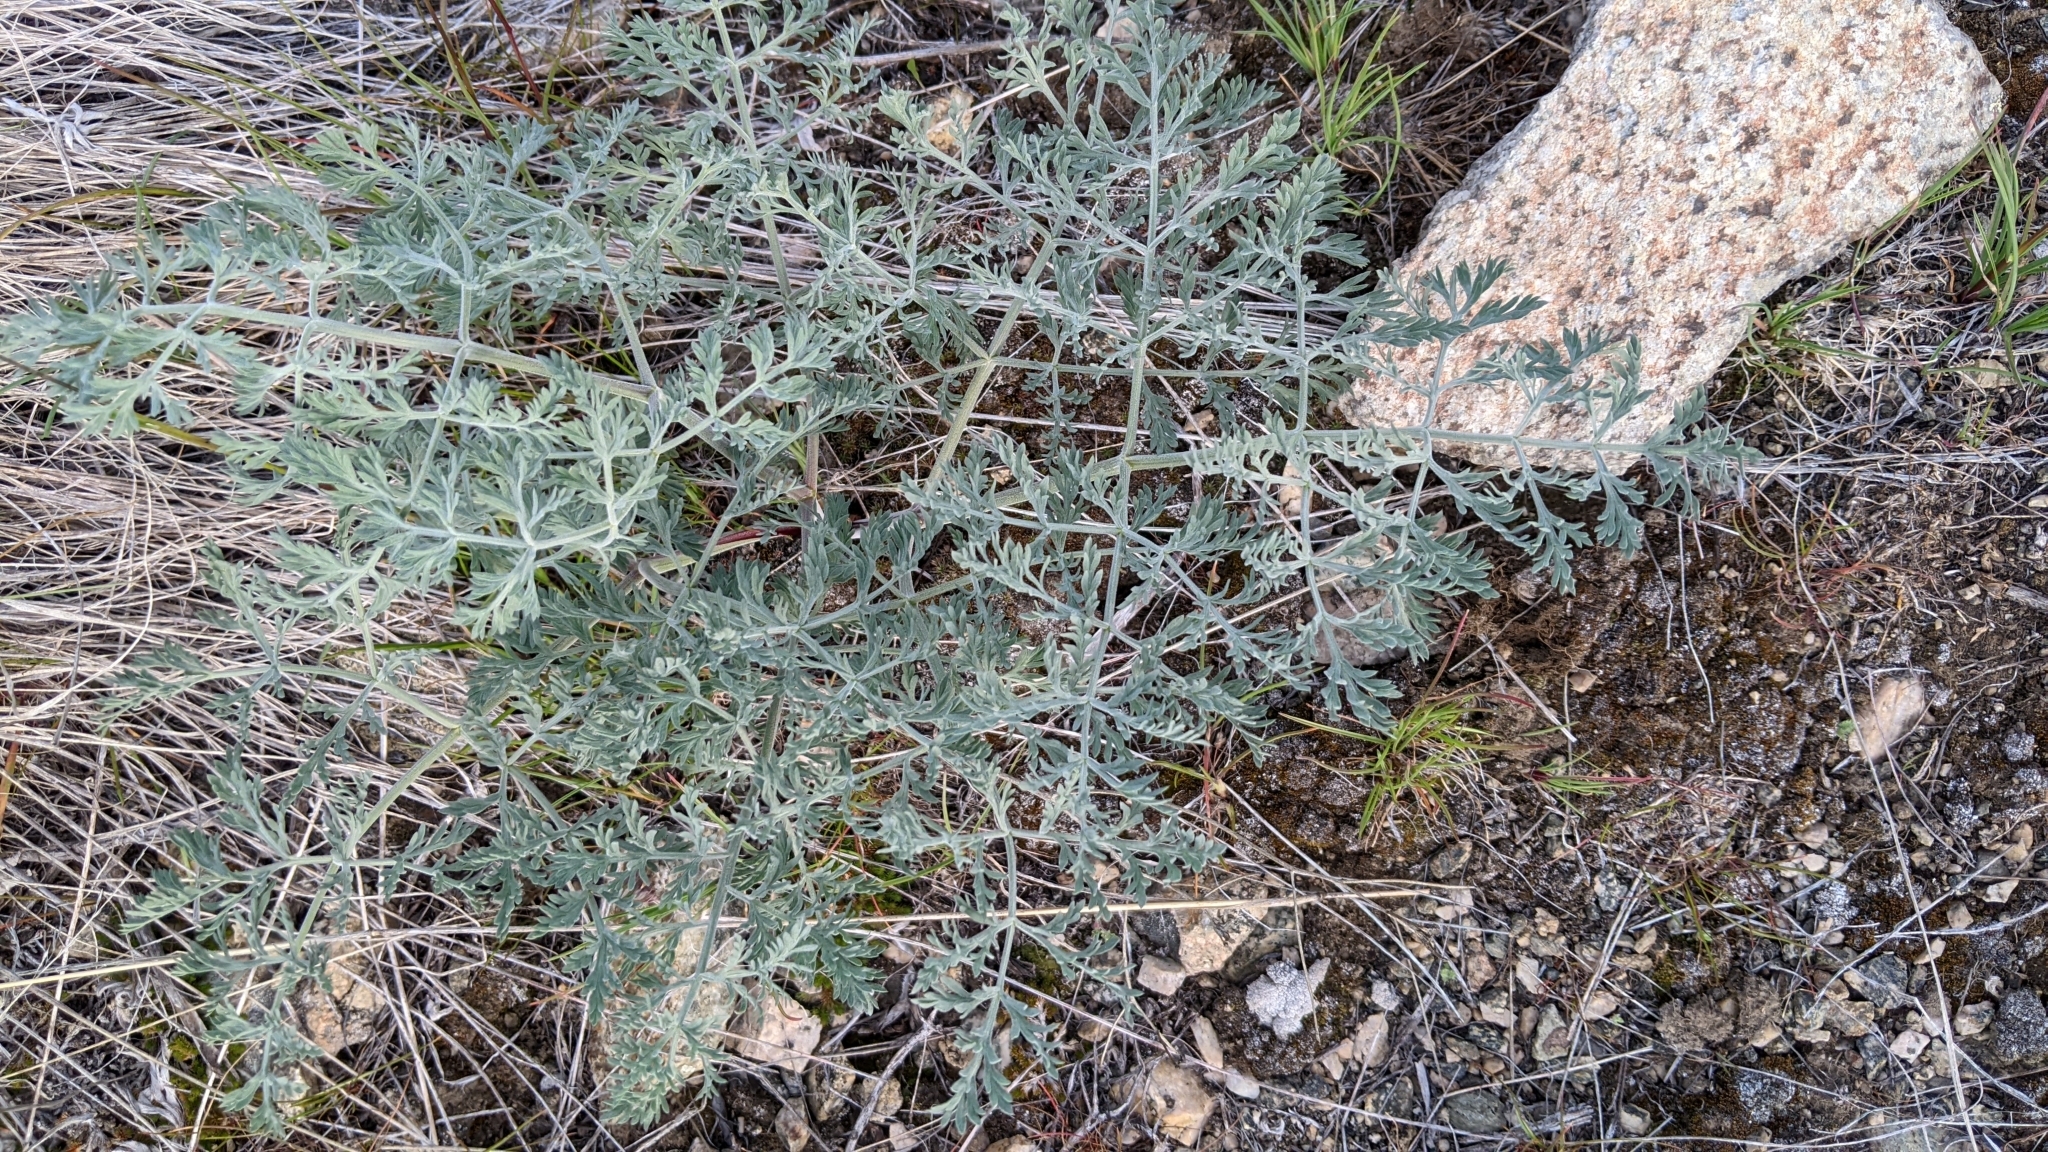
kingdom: Plantae
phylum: Tracheophyta
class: Magnoliopsida
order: Apiales
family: Apiaceae
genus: Lomatium
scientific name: Lomatium macrocarpum
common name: Big-seed biscuitroot
